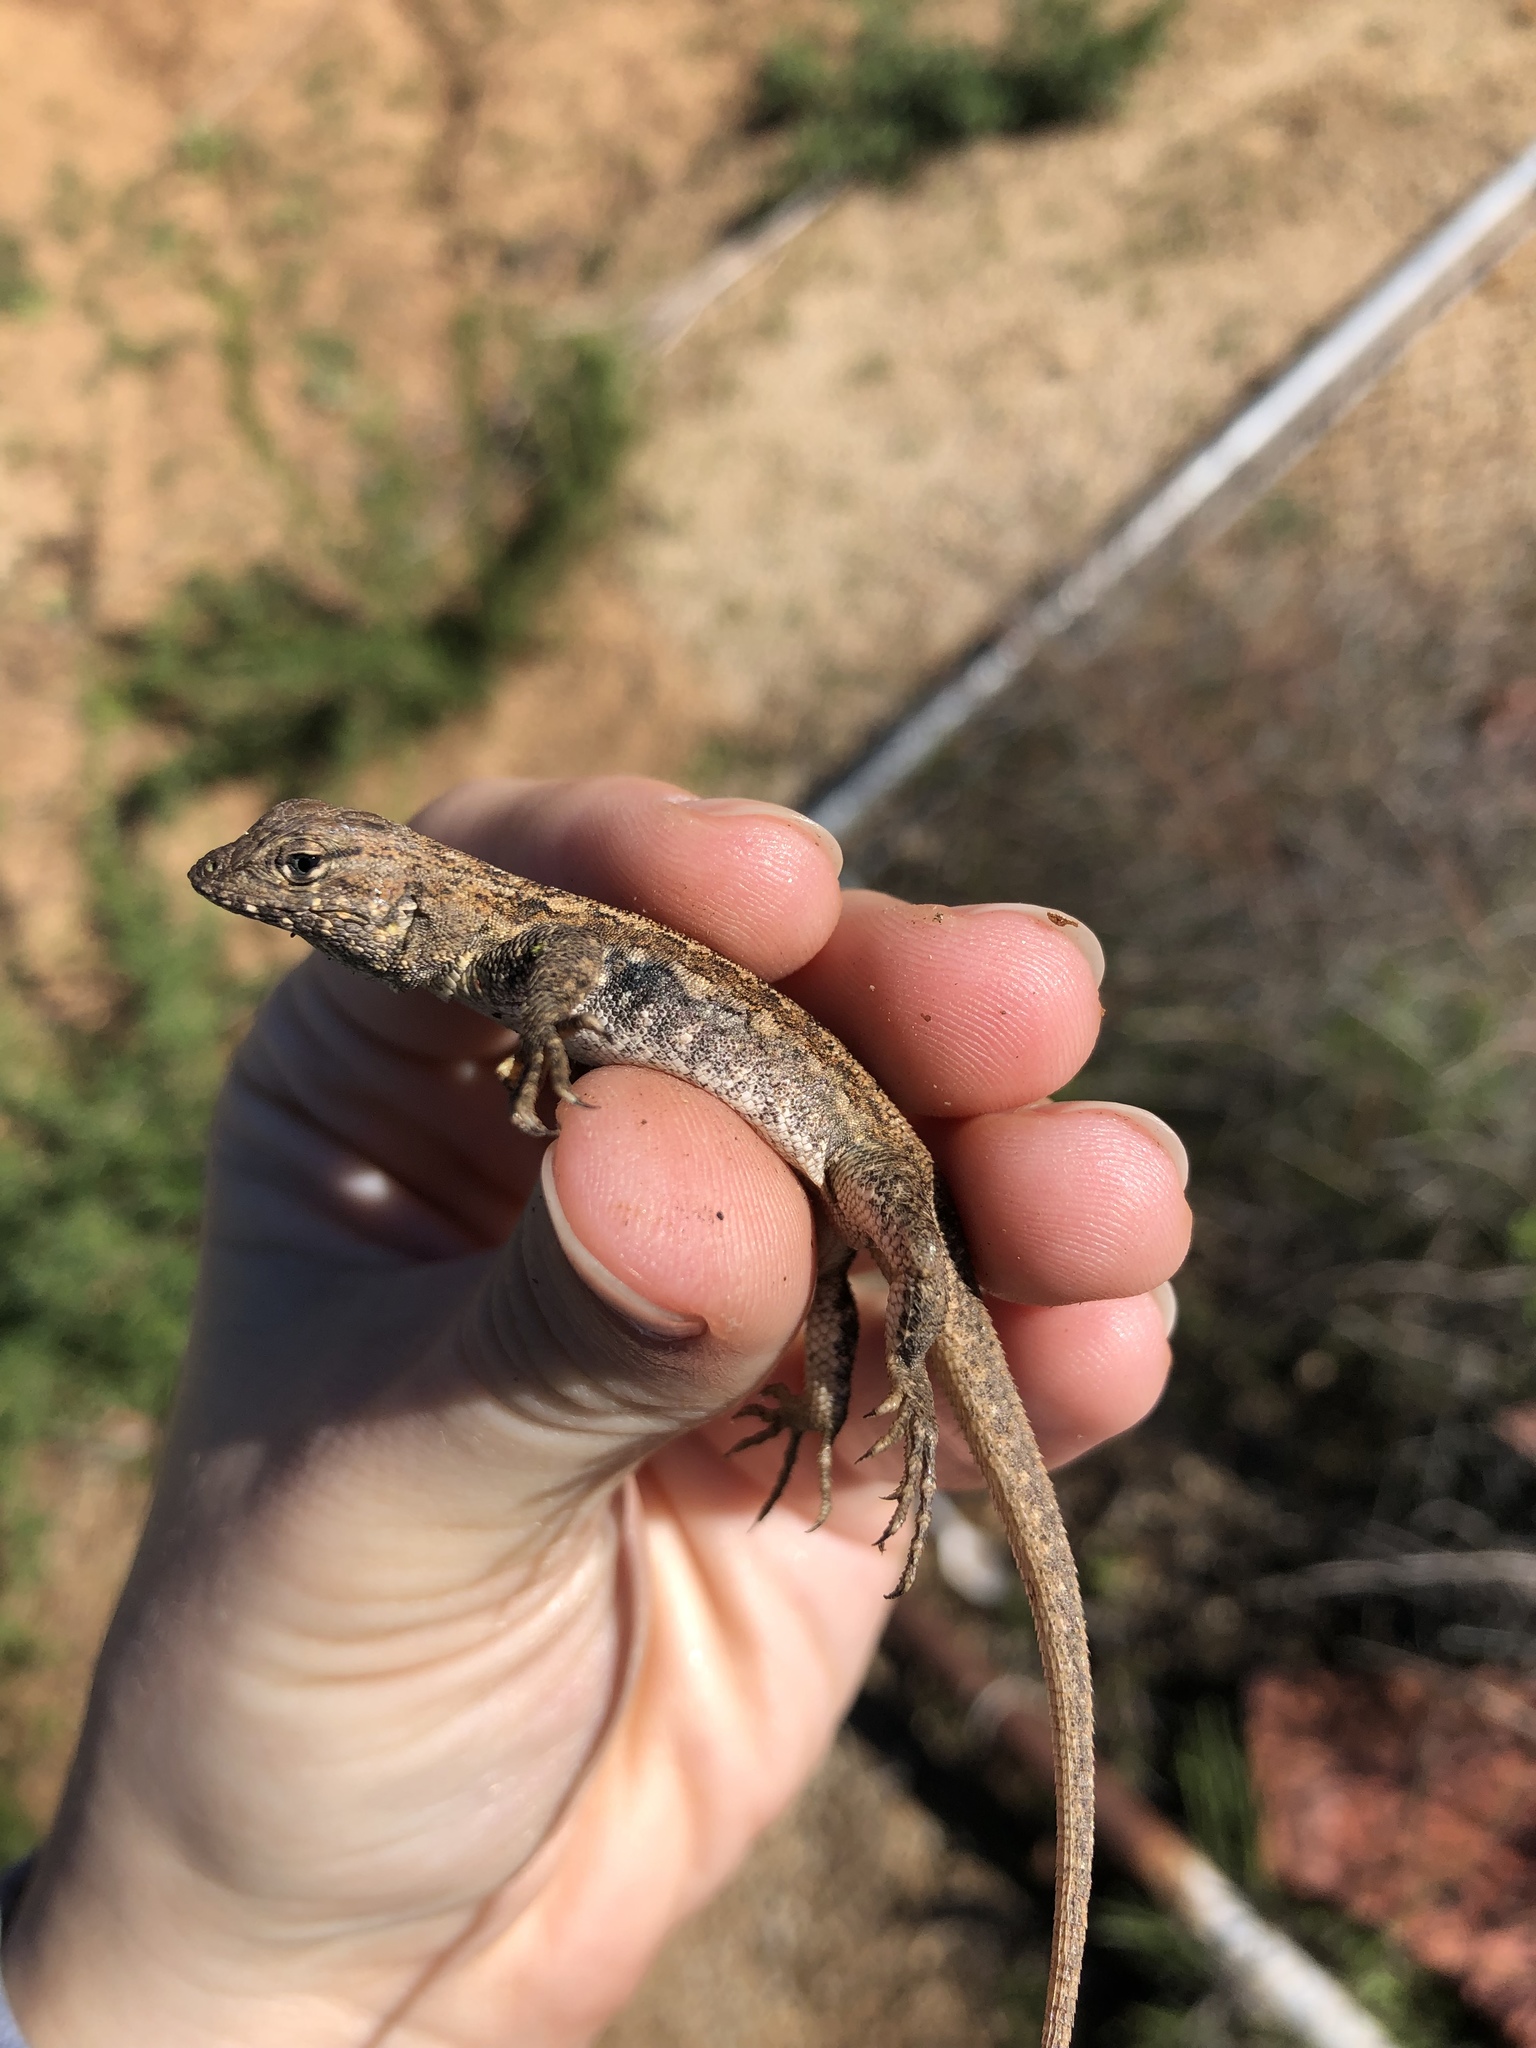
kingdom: Animalia
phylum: Chordata
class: Squamata
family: Phrynosomatidae
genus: Uta
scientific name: Uta stansburiana
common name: Side-blotched lizard
